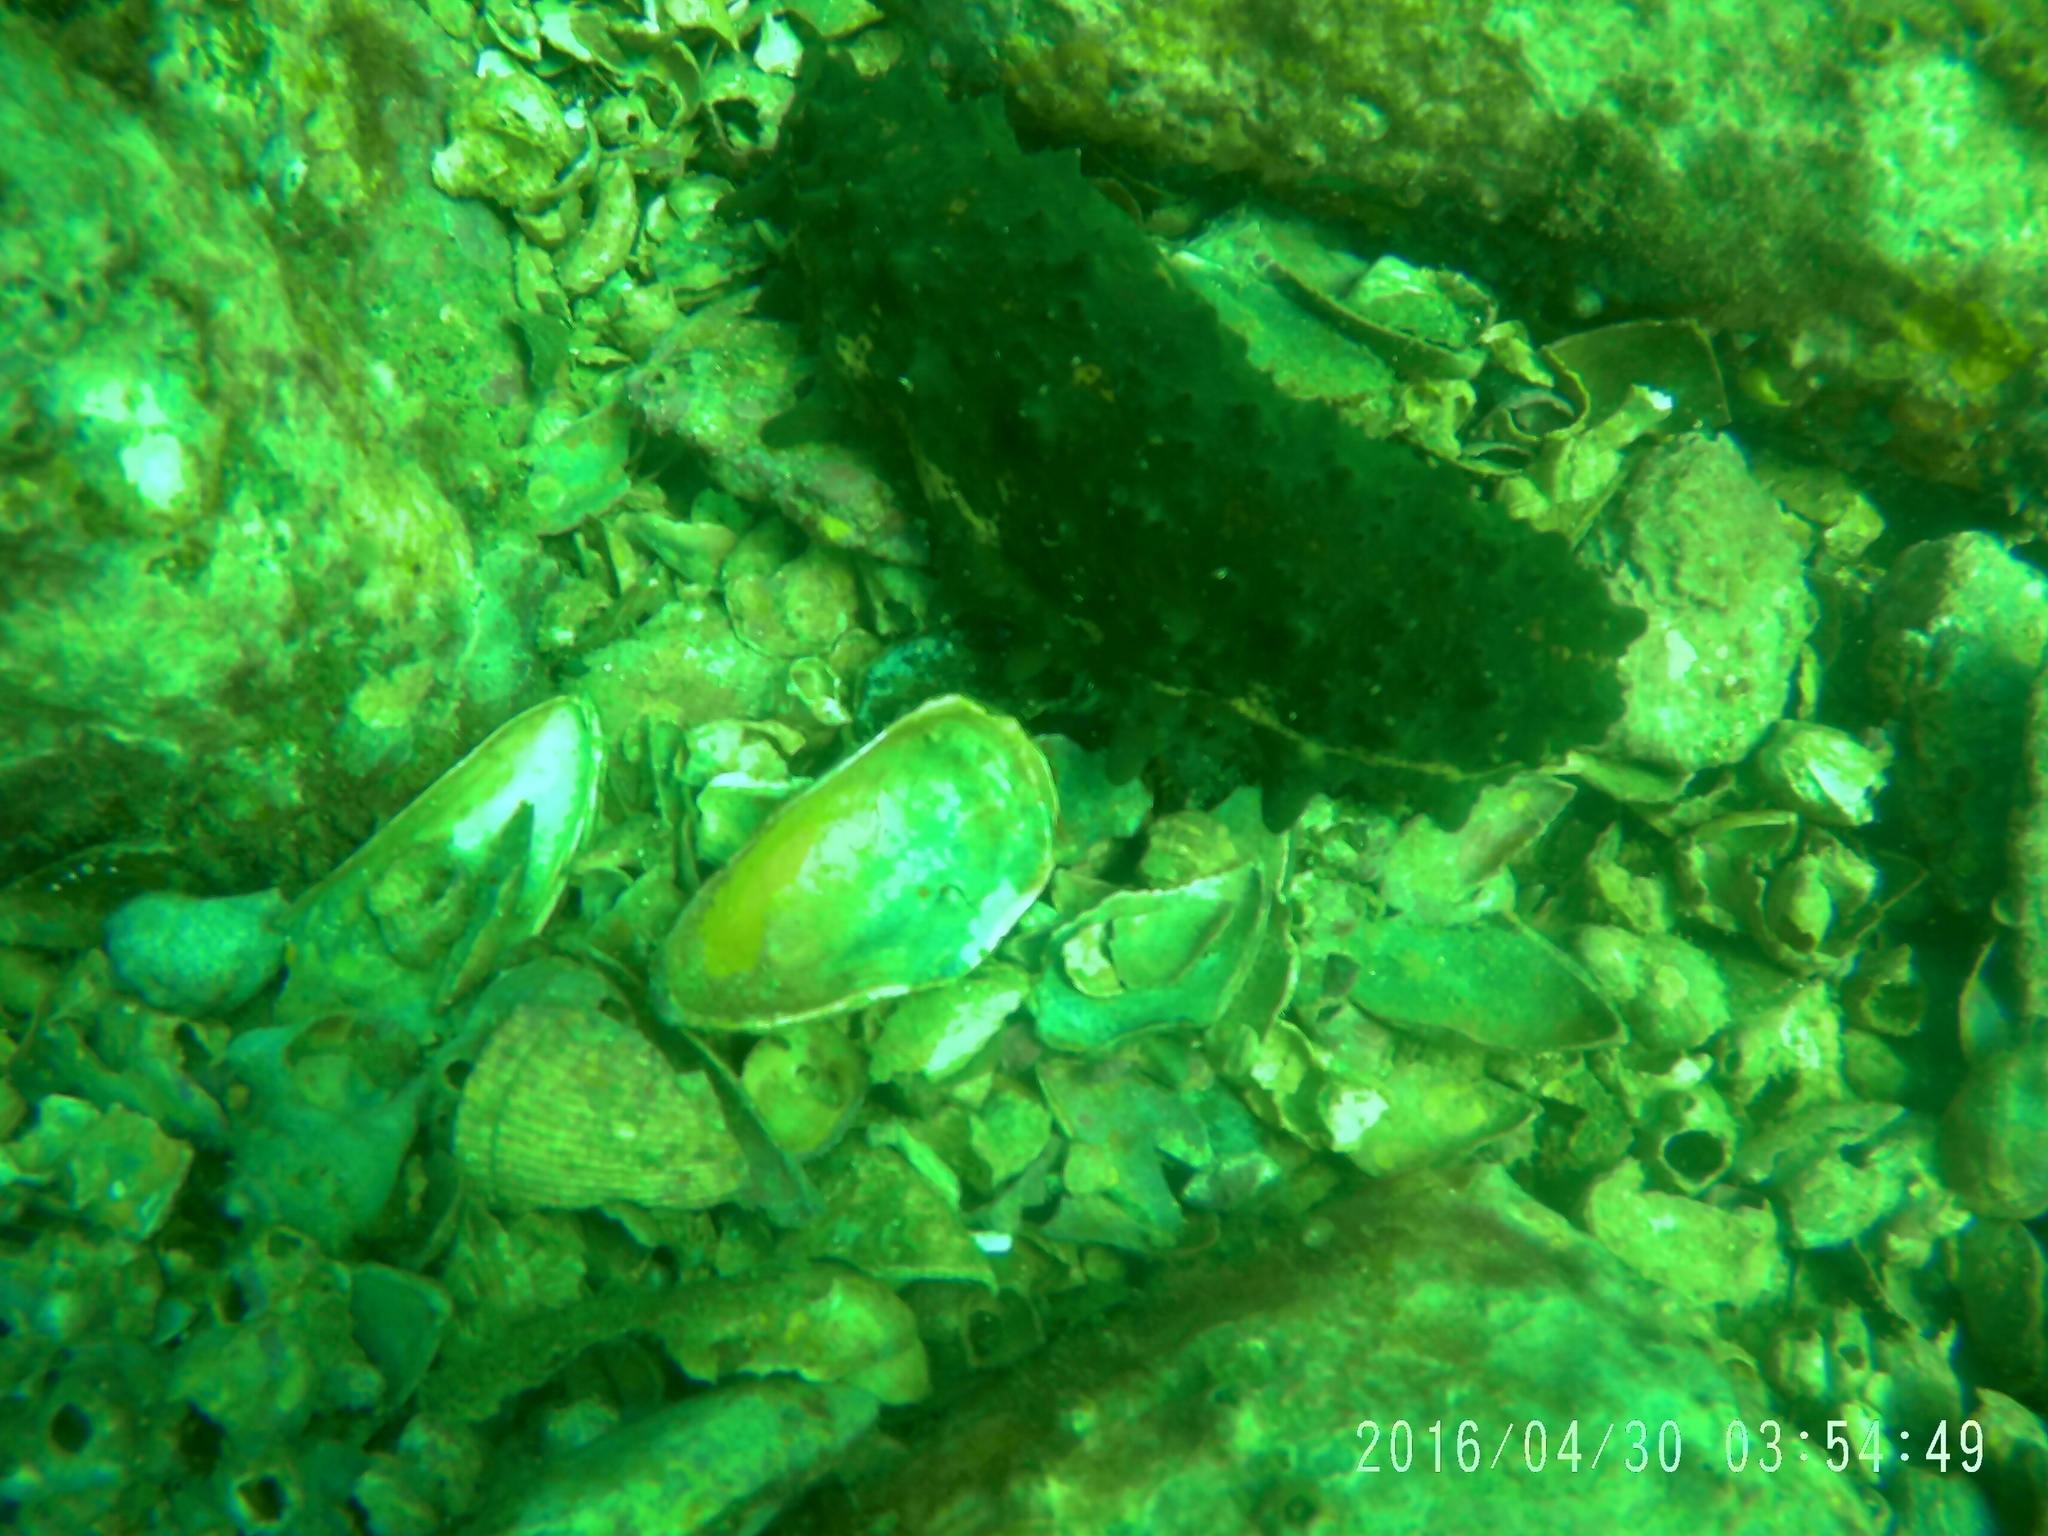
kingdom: Animalia
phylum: Echinodermata
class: Holothuroidea
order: Synallactida
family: Stichopodidae
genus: Isostichopus
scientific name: Isostichopus badionotus
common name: Chocolate chip cucumber
